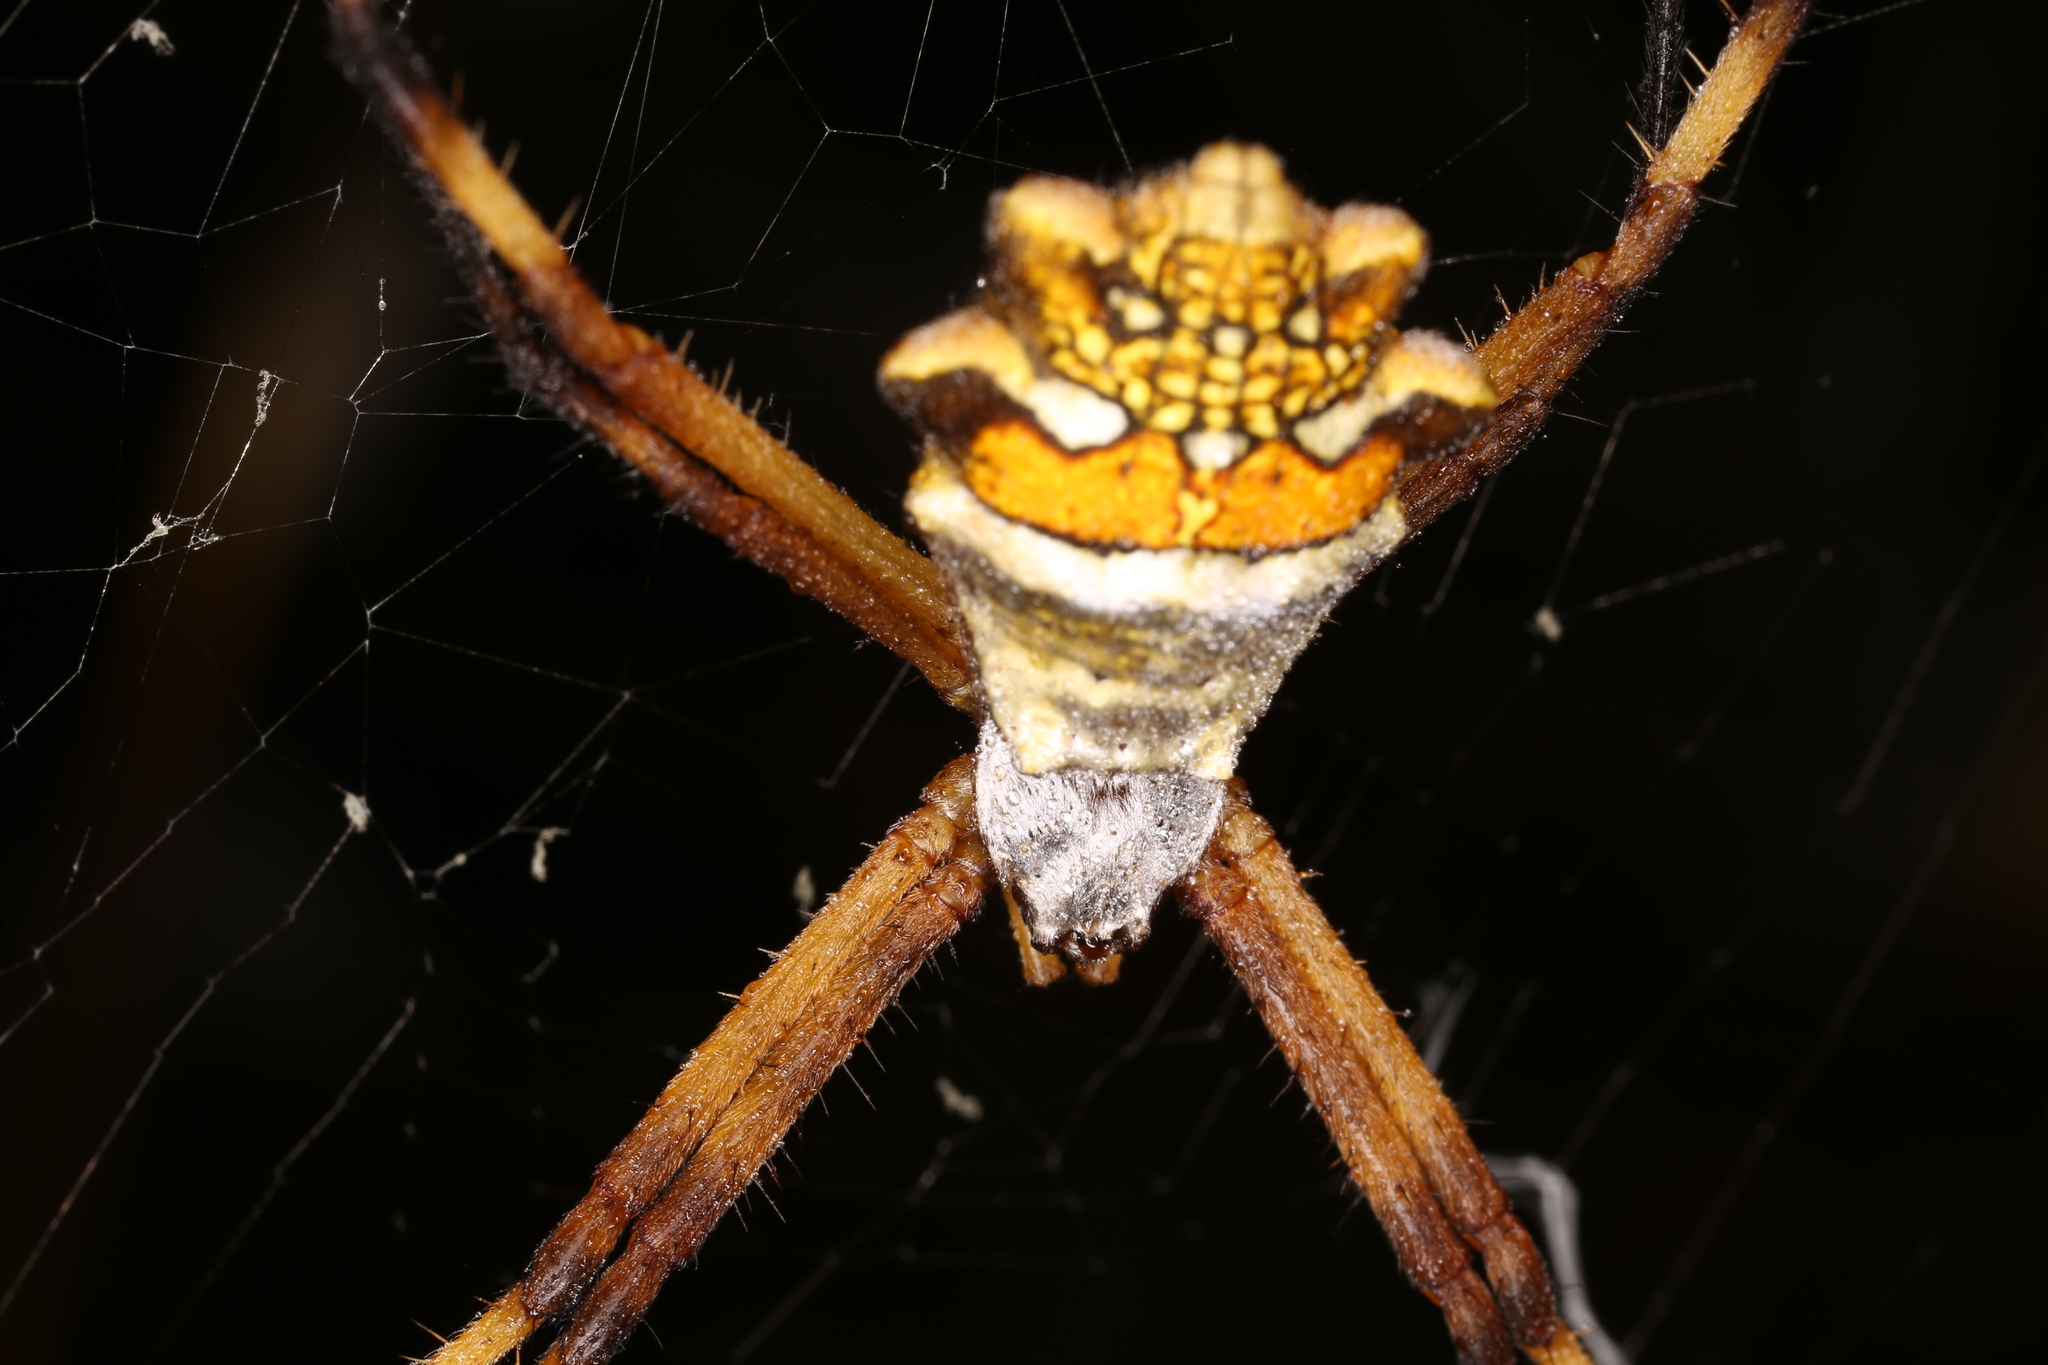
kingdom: Animalia
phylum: Arthropoda
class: Arachnida
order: Araneae
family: Araneidae
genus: Argiope
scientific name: Argiope argentata
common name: Orb weavers
